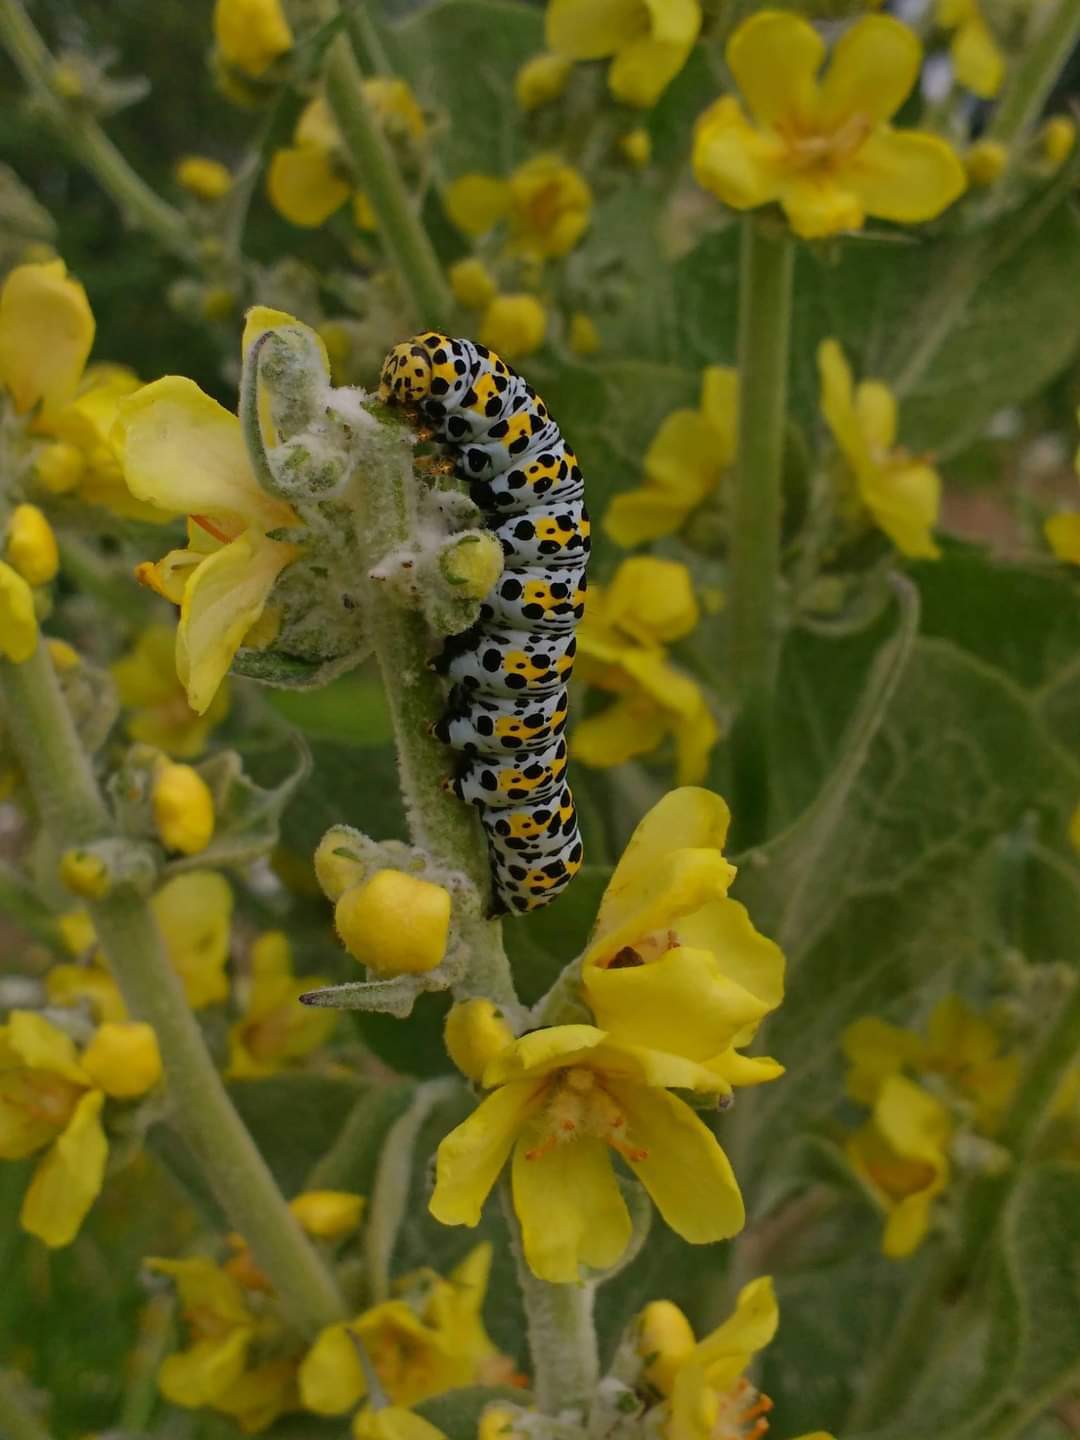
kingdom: Animalia
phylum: Arthropoda
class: Insecta
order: Lepidoptera
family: Noctuidae
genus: Cucullia
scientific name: Cucullia verbasci
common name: Mullein
